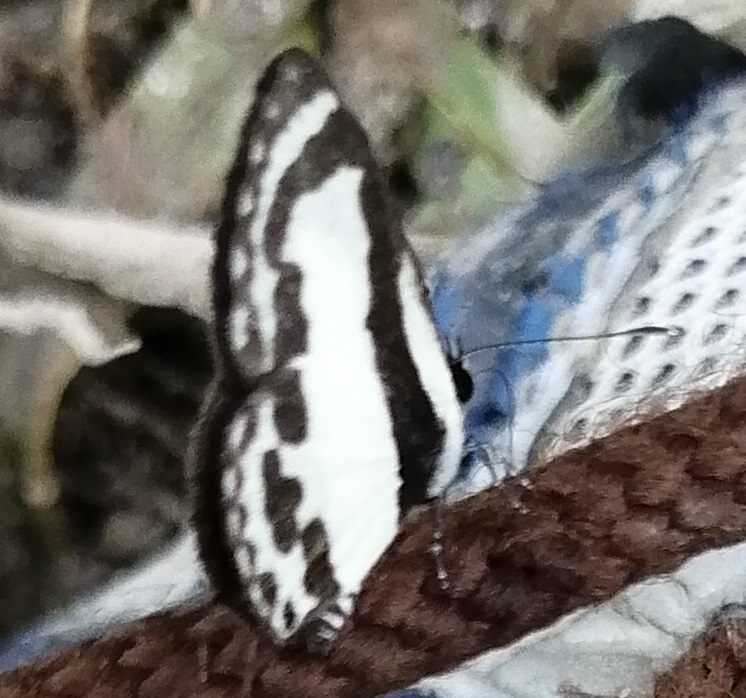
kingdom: Animalia
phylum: Arthropoda
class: Insecta
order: Lepidoptera
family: Lycaenidae
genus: Caleta
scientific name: Caleta roxus
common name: Straight pierrot
